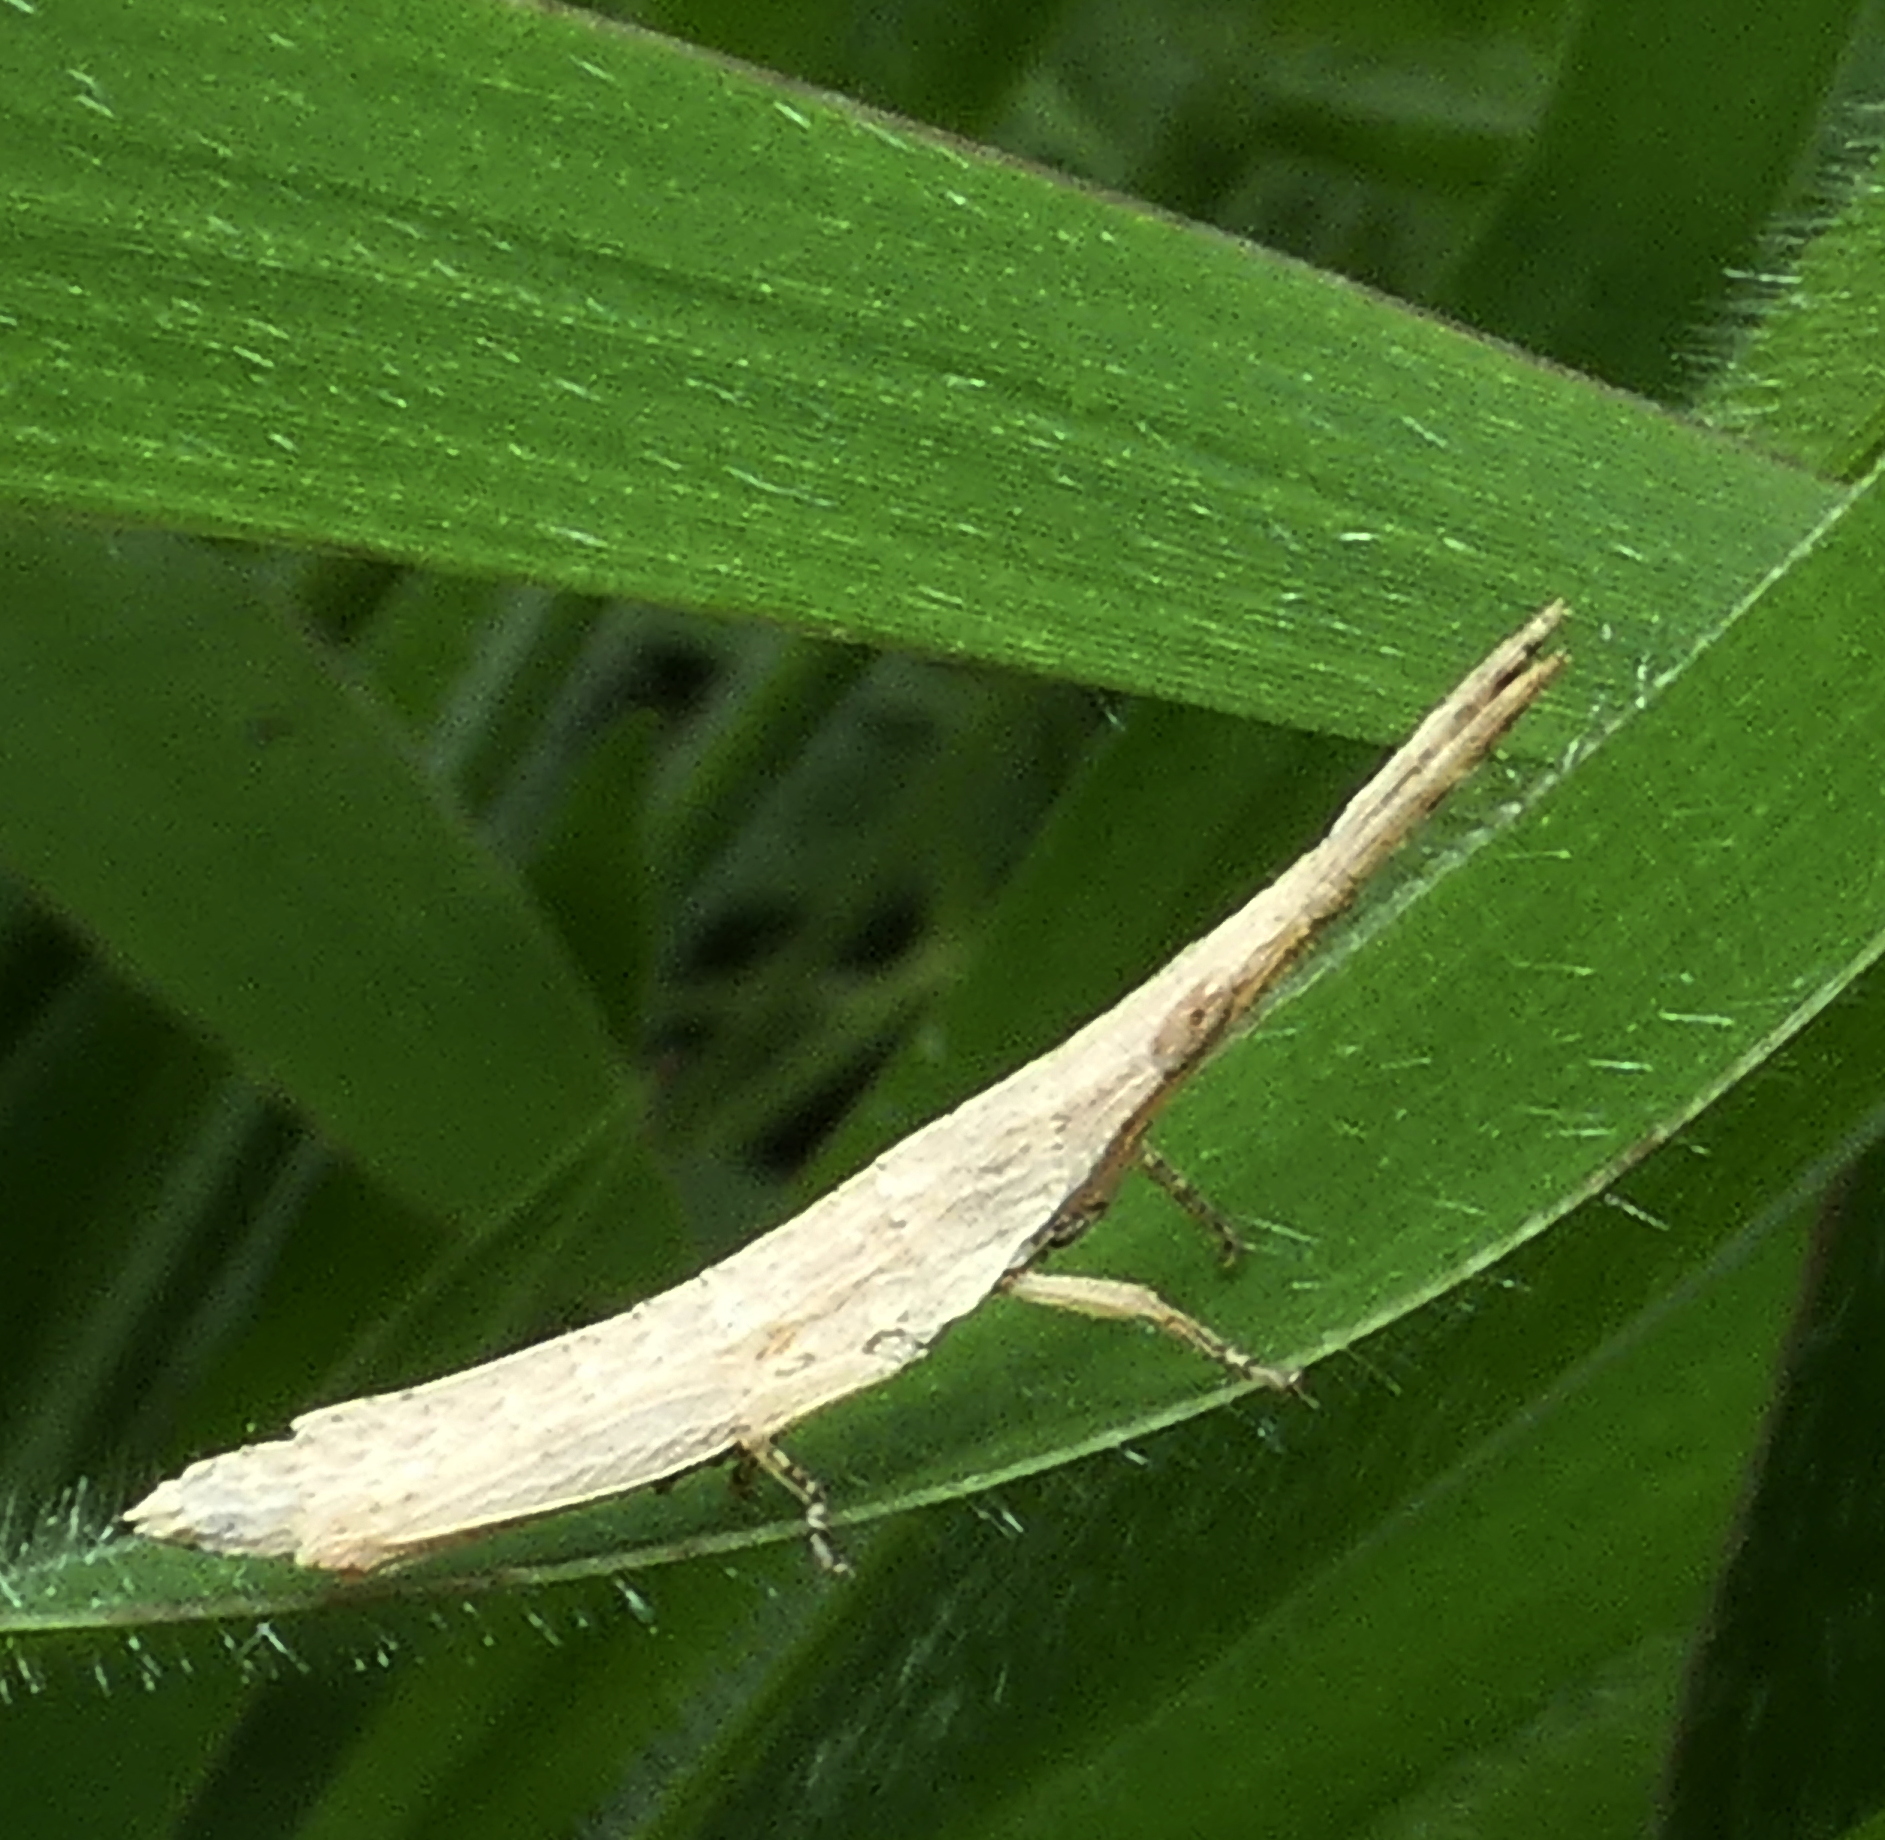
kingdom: Animalia
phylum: Arthropoda
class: Insecta
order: Orthoptera
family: Pyrgomorphidae
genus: Algete
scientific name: Algete brunneri
